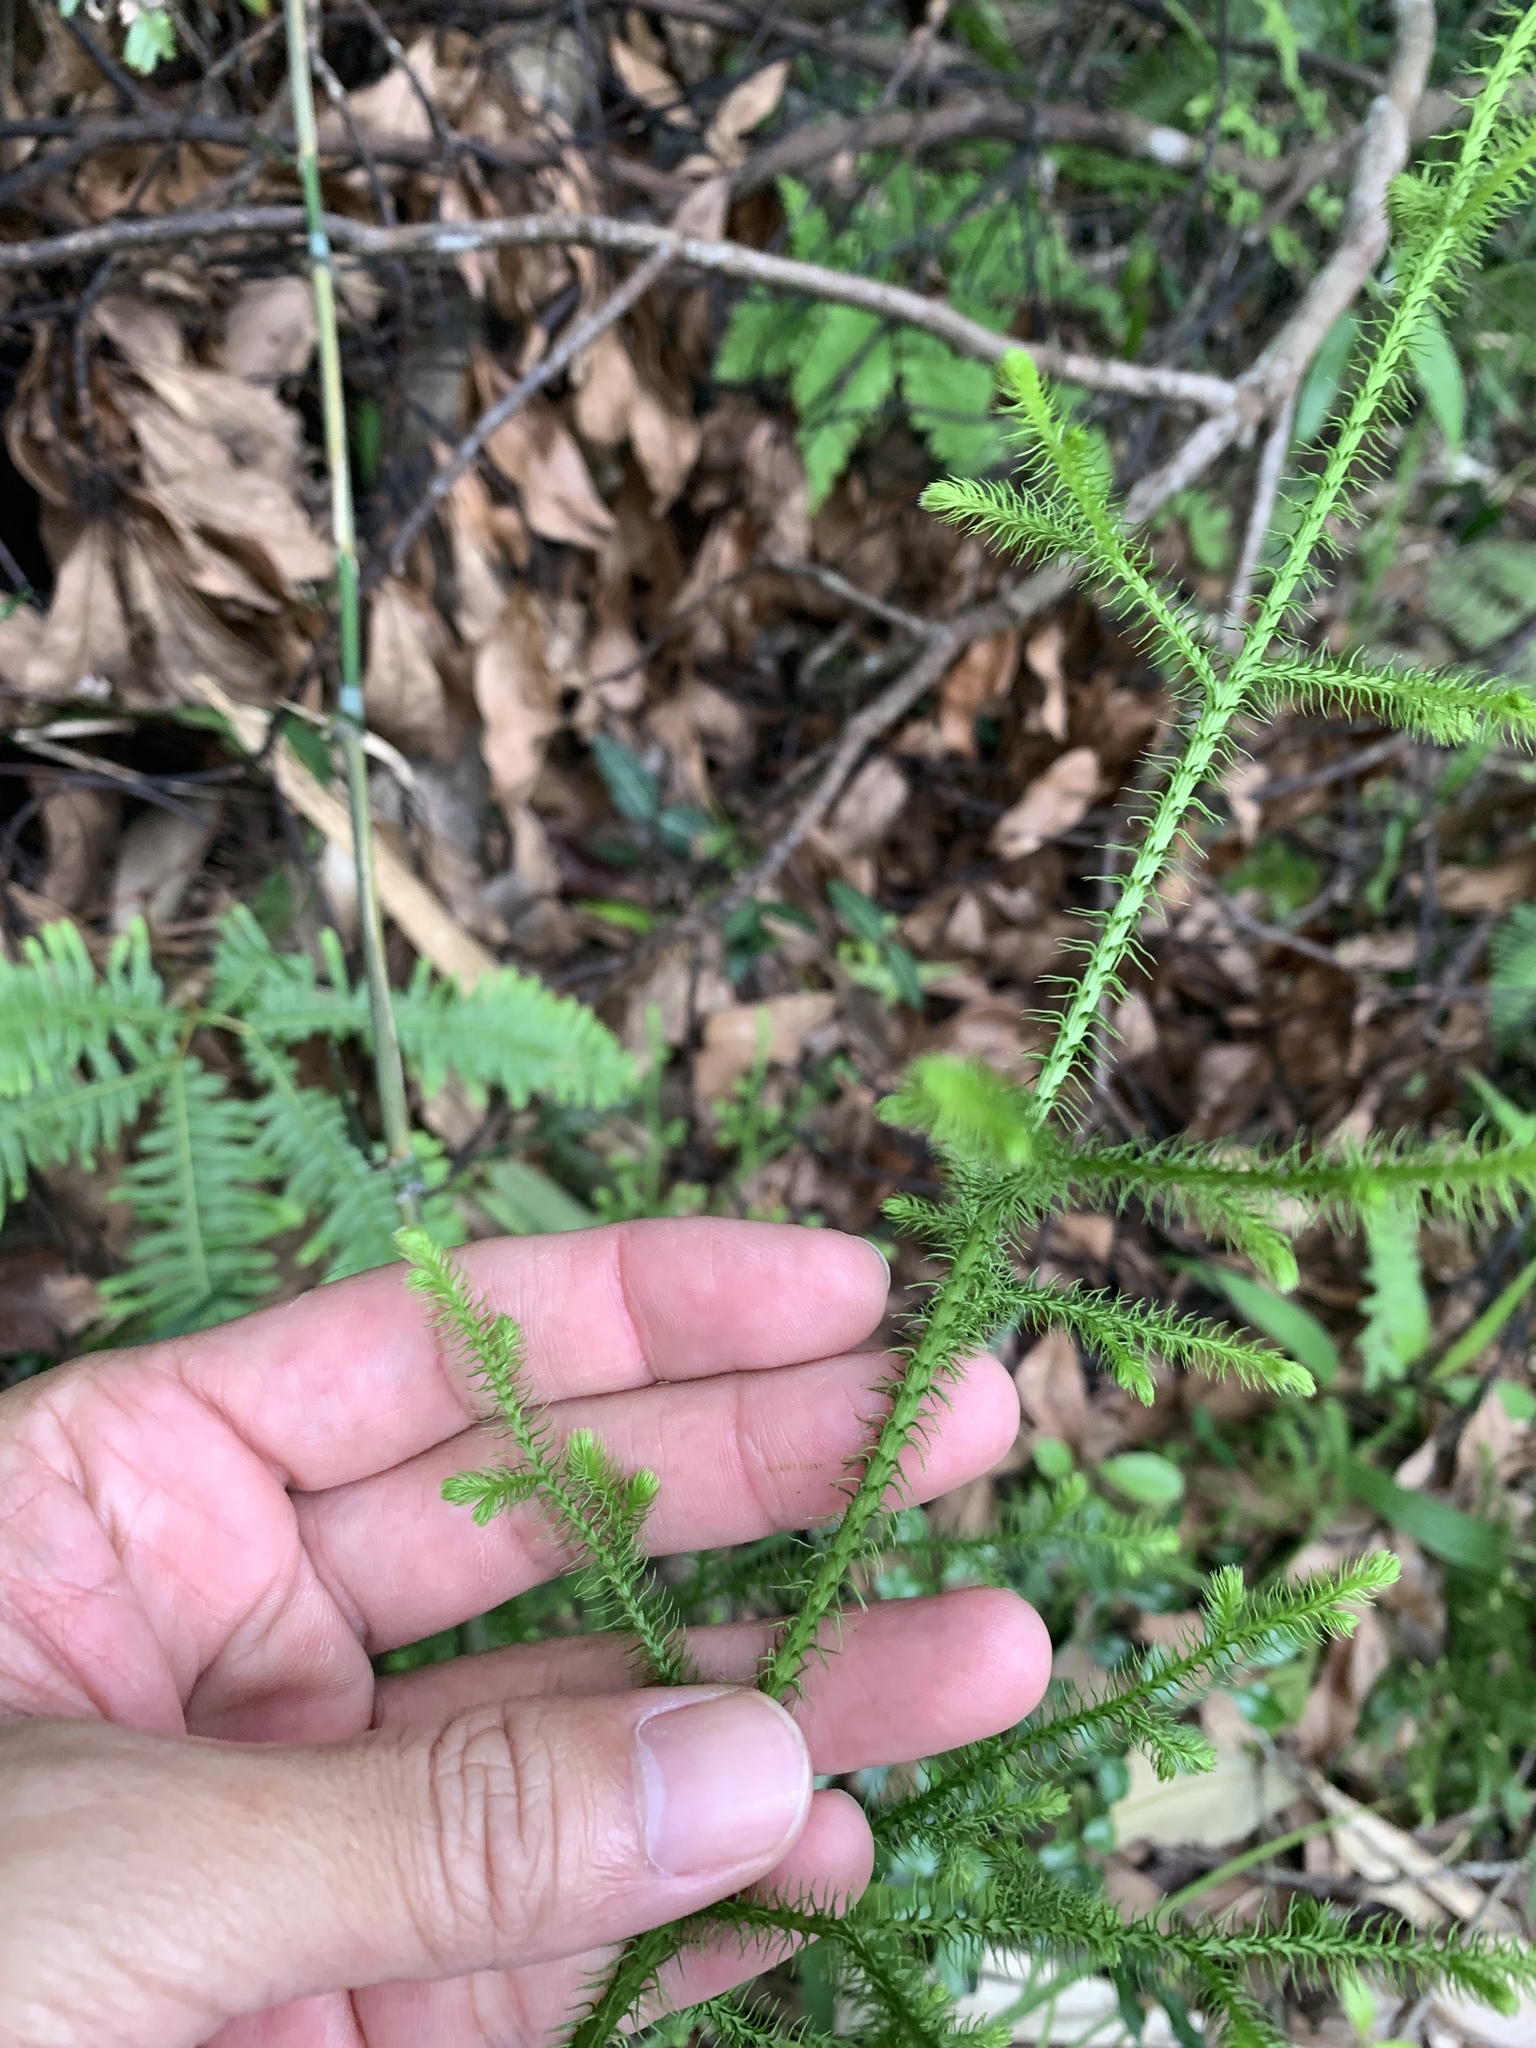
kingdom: Plantae
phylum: Tracheophyta
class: Lycopodiopsida
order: Lycopodiales
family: Lycopodiaceae
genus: Palhinhaea
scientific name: Palhinhaea cernua
